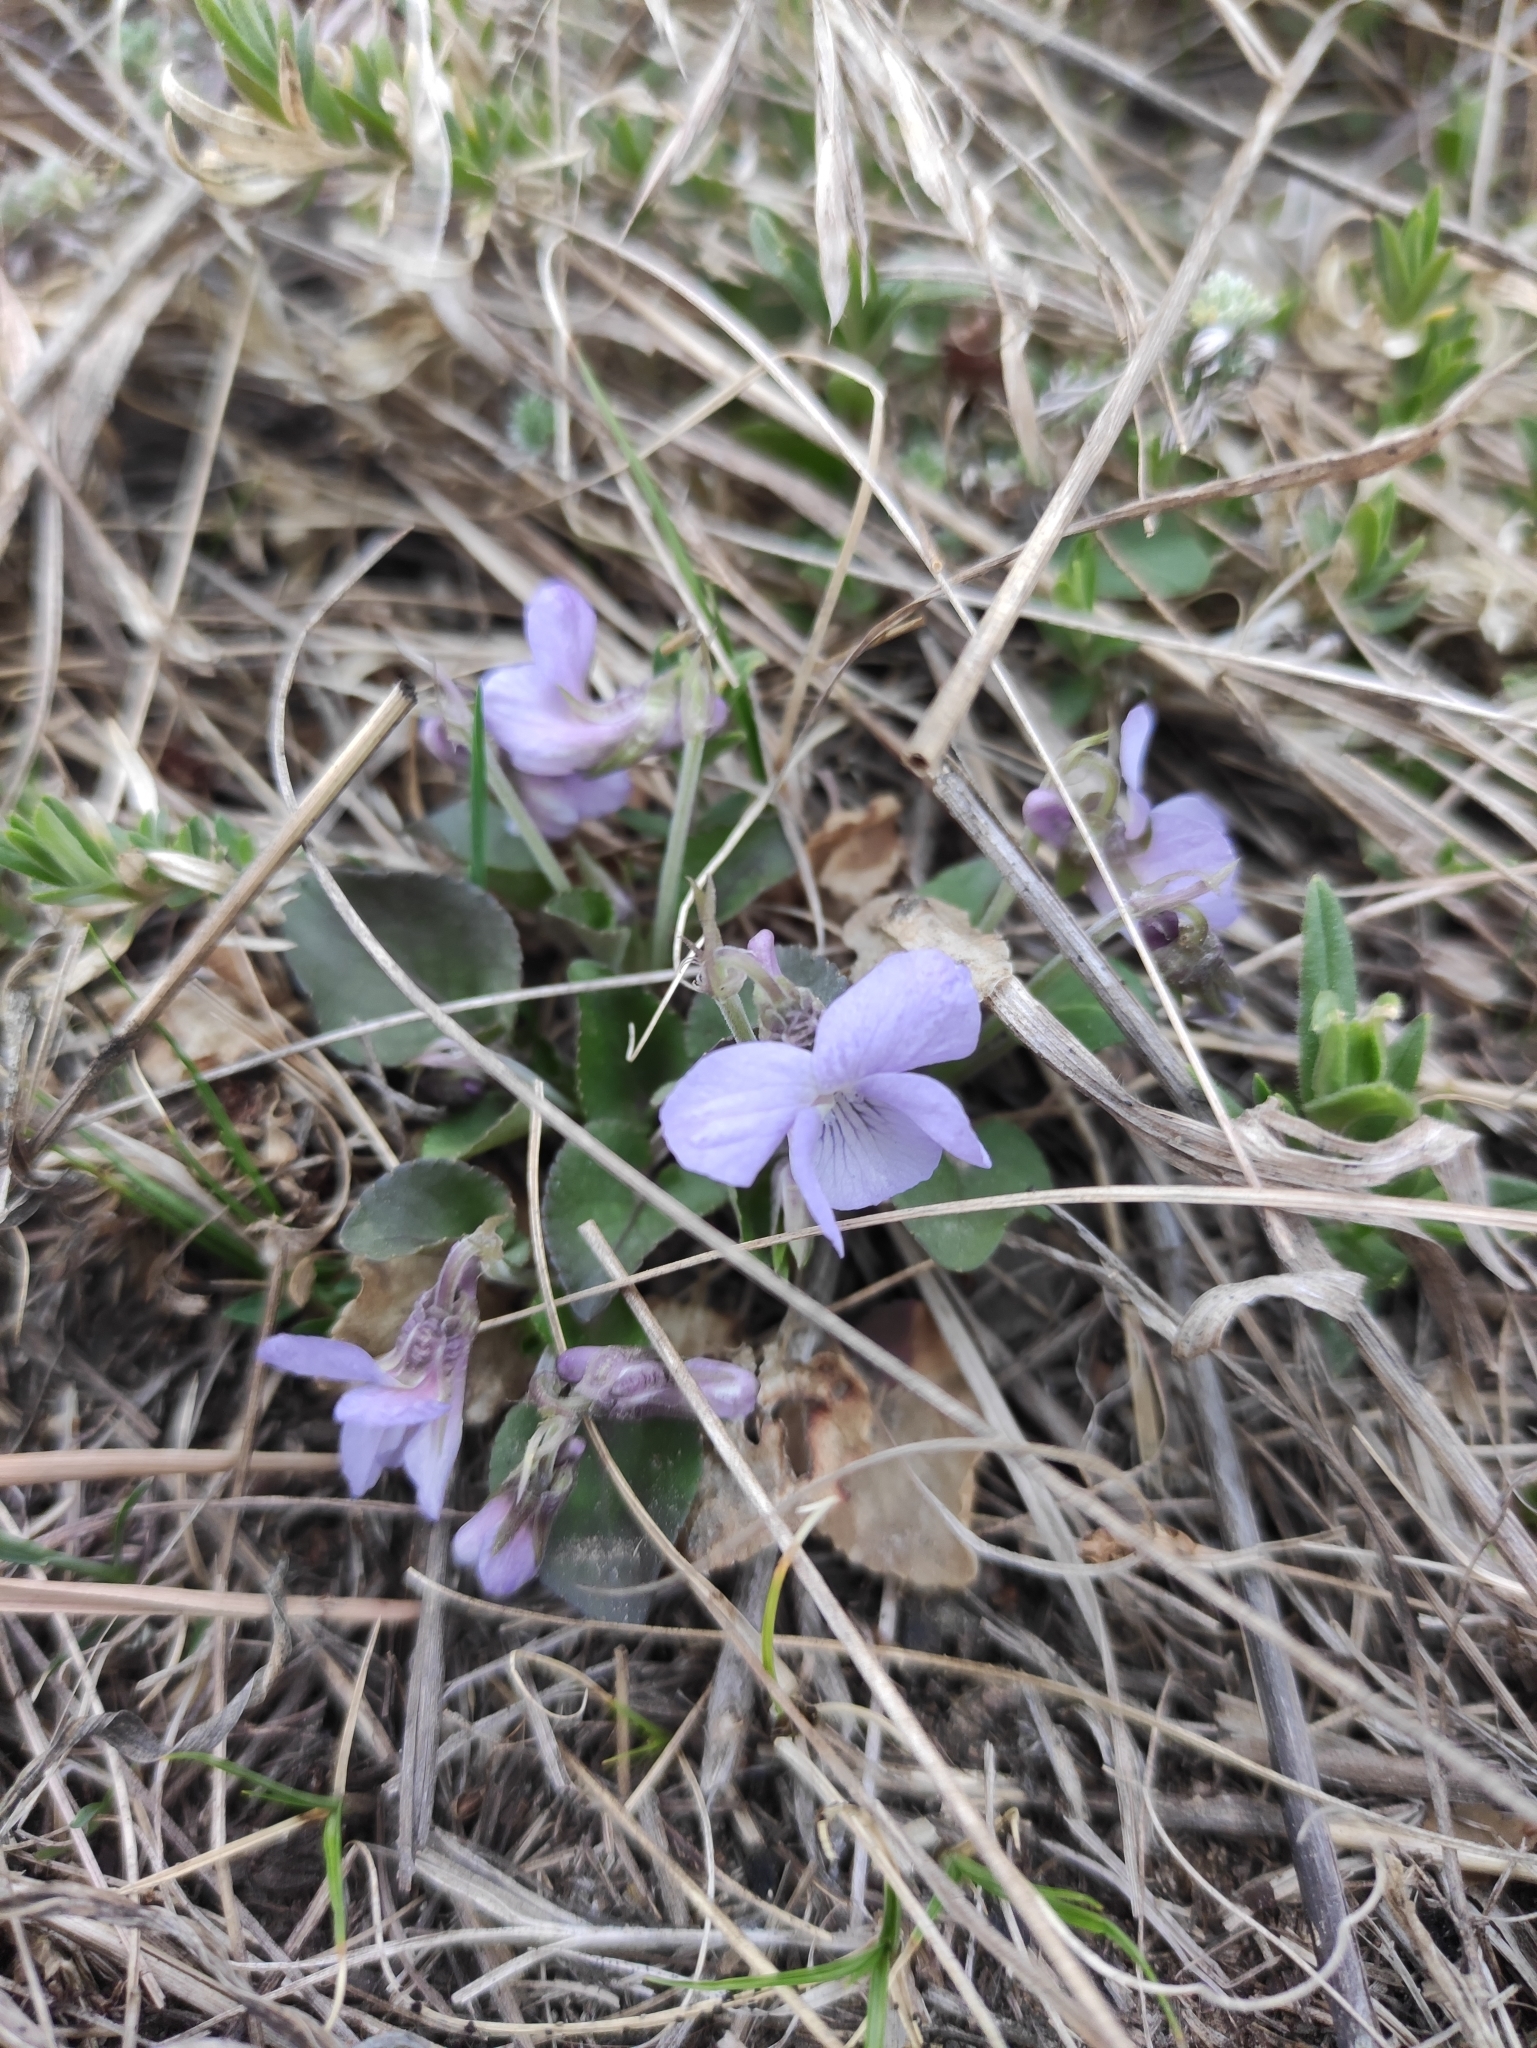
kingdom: Plantae
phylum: Tracheophyta
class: Magnoliopsida
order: Malpighiales
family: Violaceae
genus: Viola
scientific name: Viola rupestris
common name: Teesdale violet
